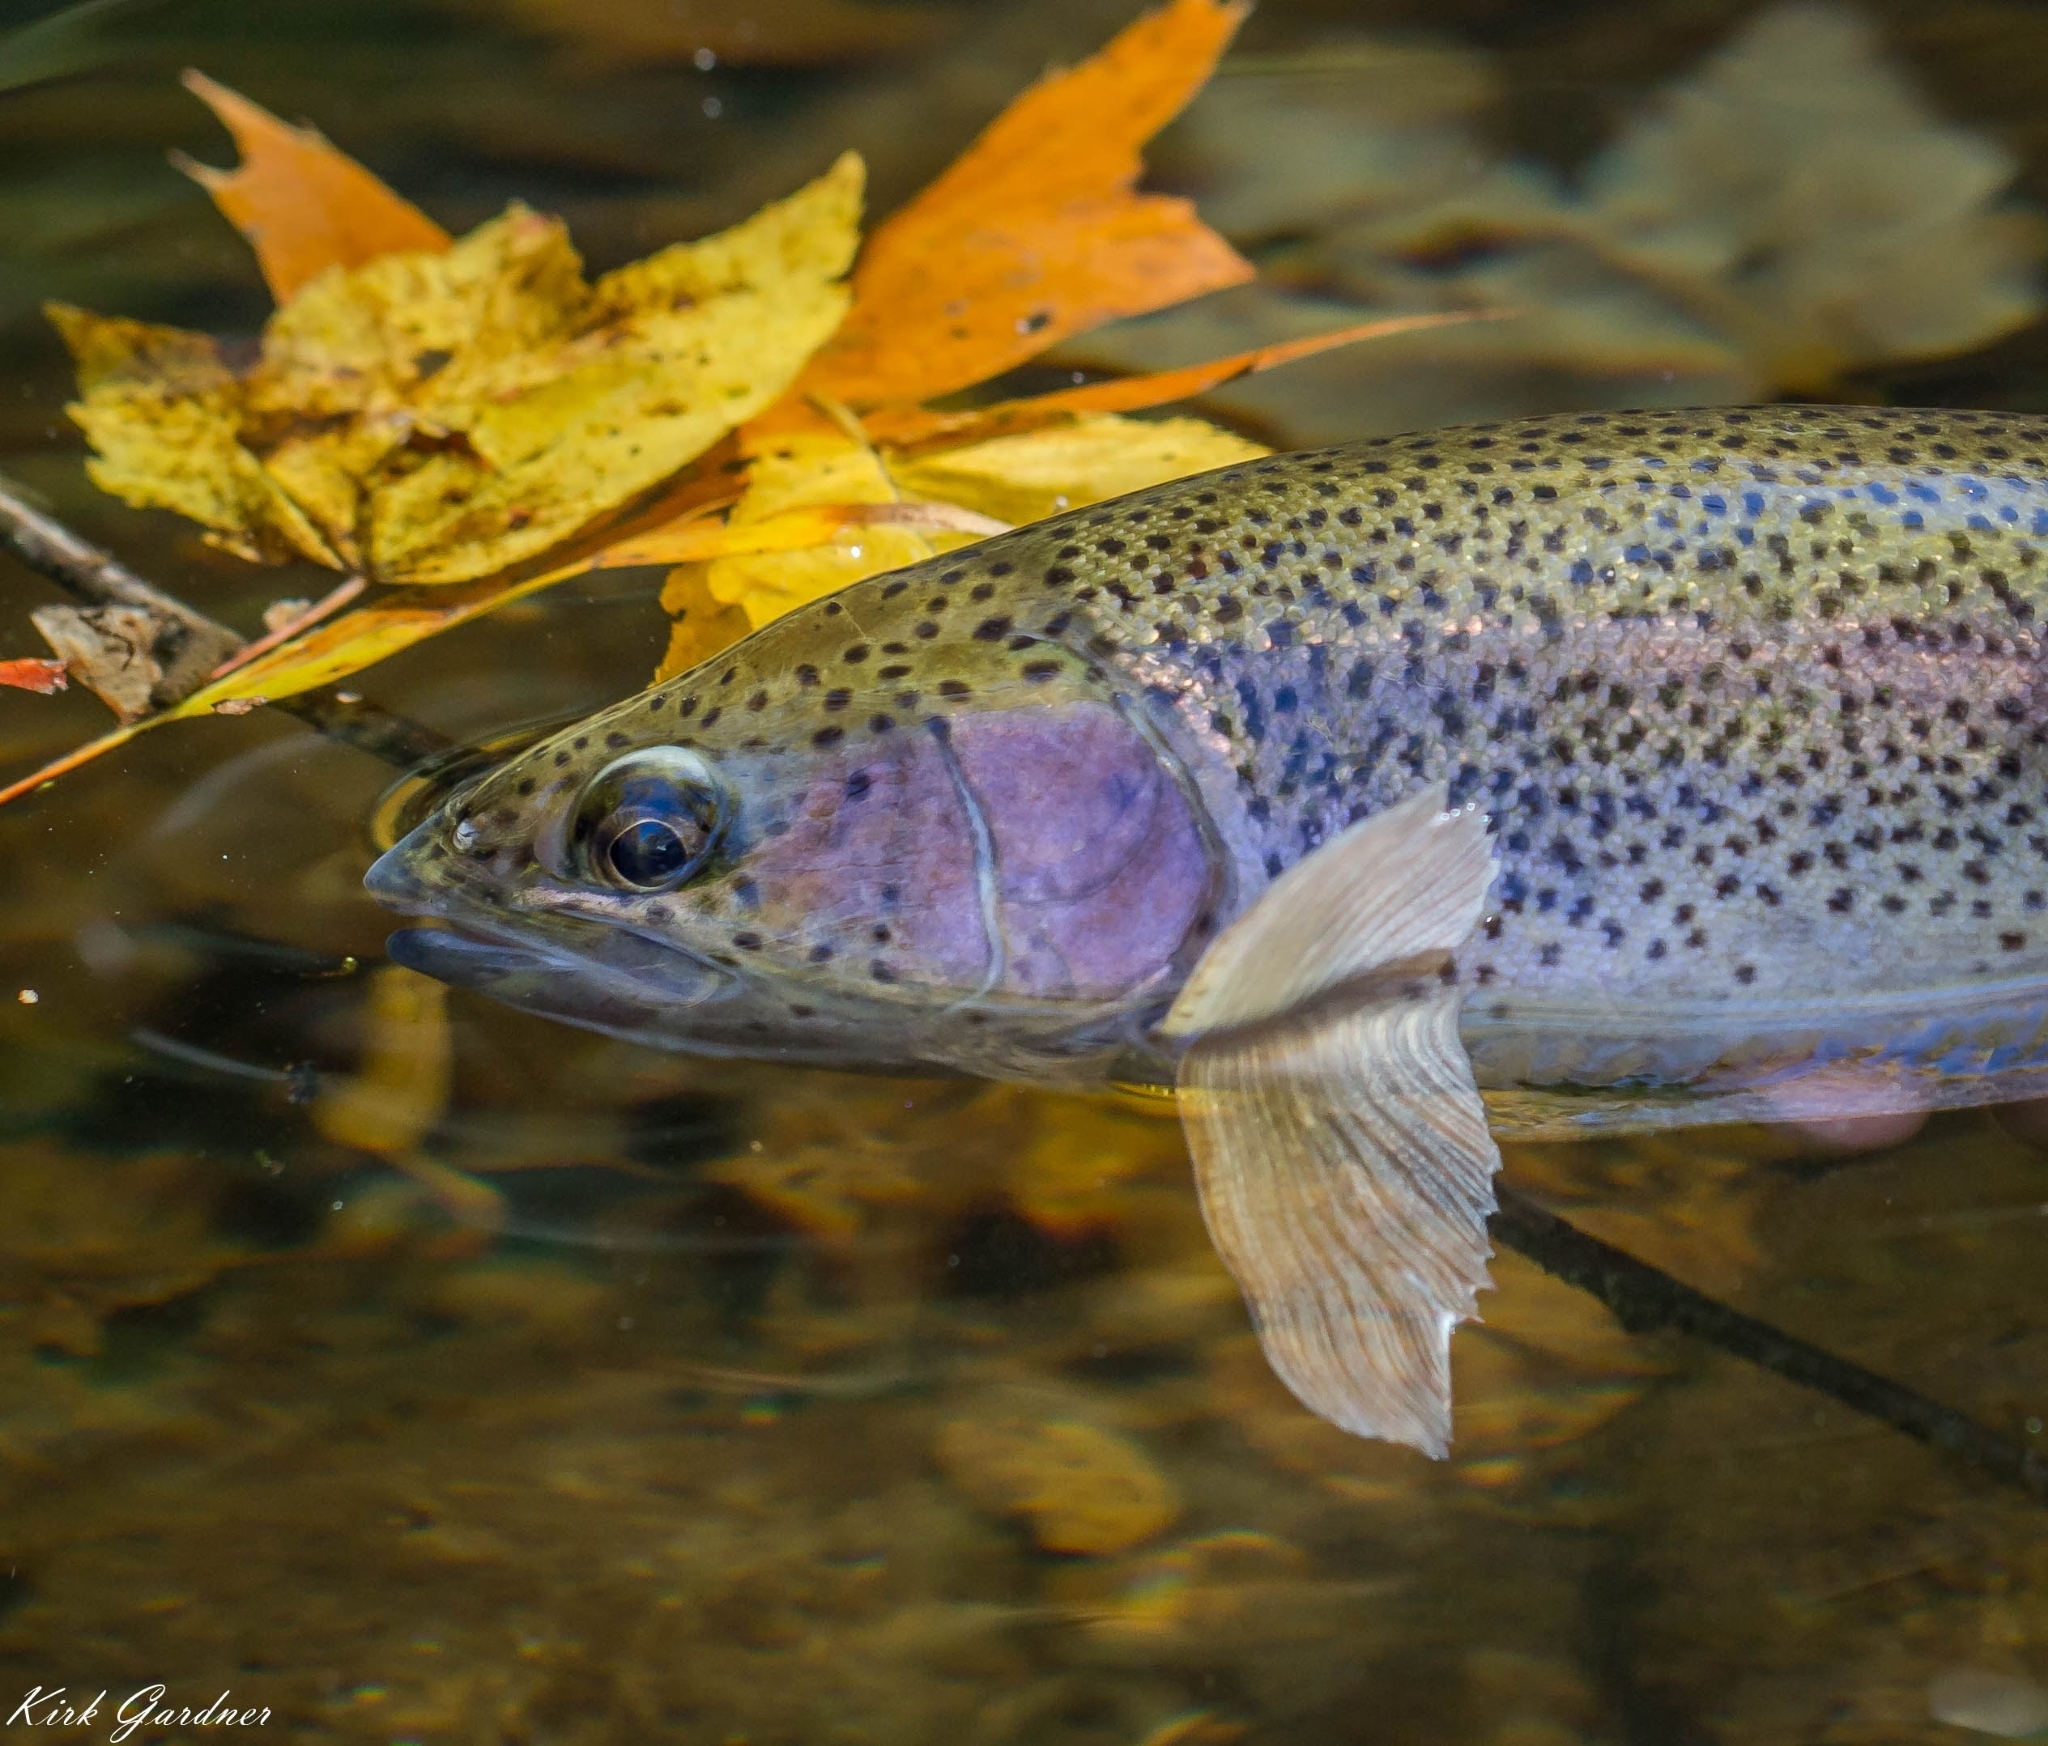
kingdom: Animalia
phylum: Chordata
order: Salmoniformes
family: Salmonidae
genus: Oncorhynchus
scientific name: Oncorhynchus mykiss
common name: Rainbow trout
